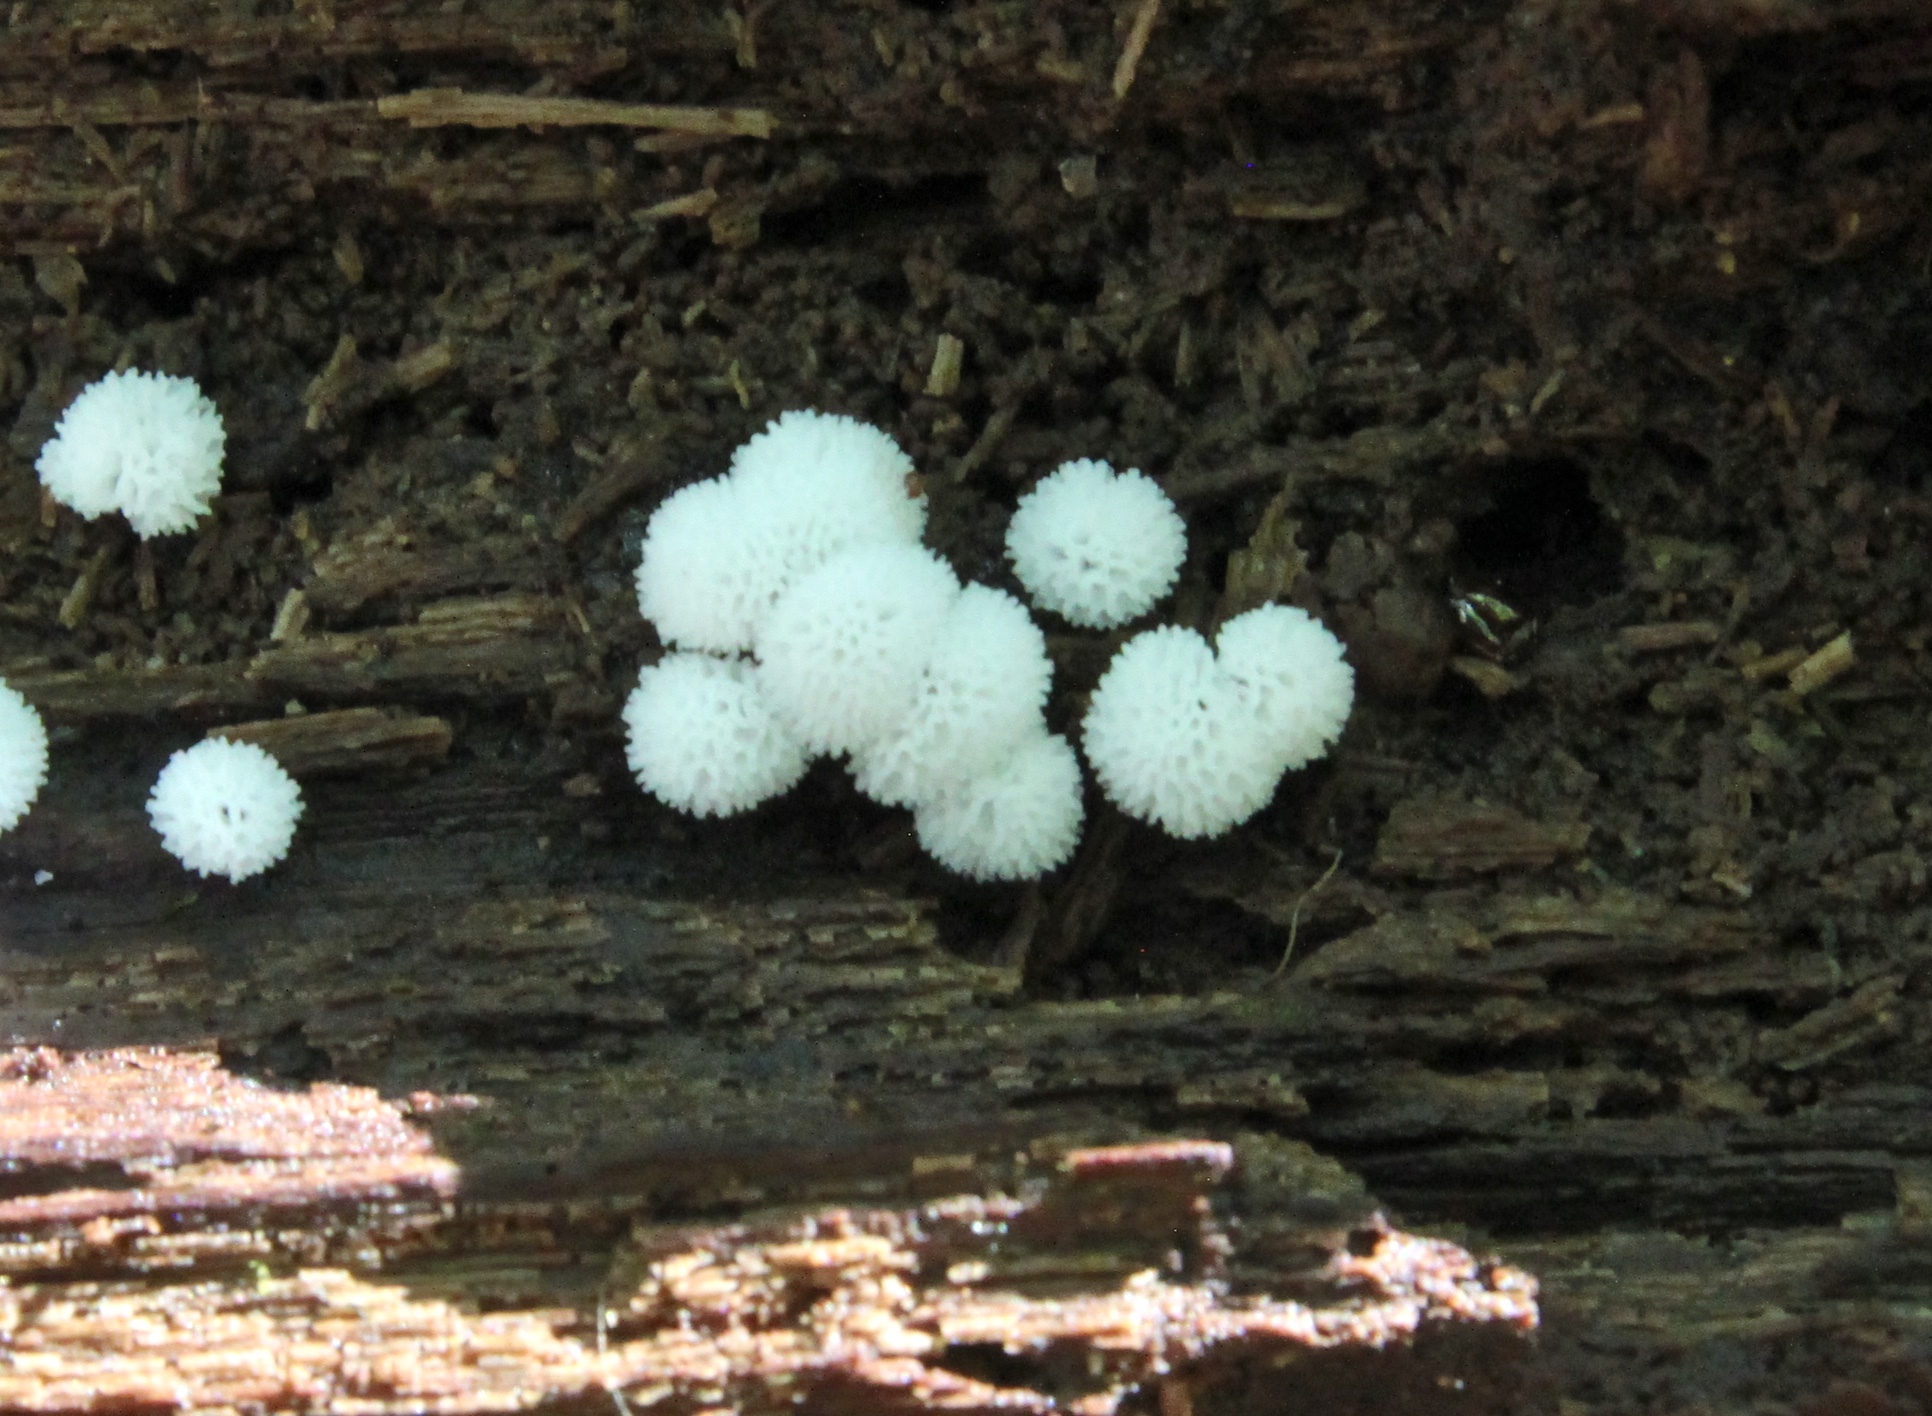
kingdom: Protozoa
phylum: Mycetozoa
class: Protosteliomycetes
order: Ceratiomyxales
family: Ceratiomyxaceae
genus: Ceratiomyxa
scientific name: Ceratiomyxa fruticulosa
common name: Honeycomb coral slime mold
